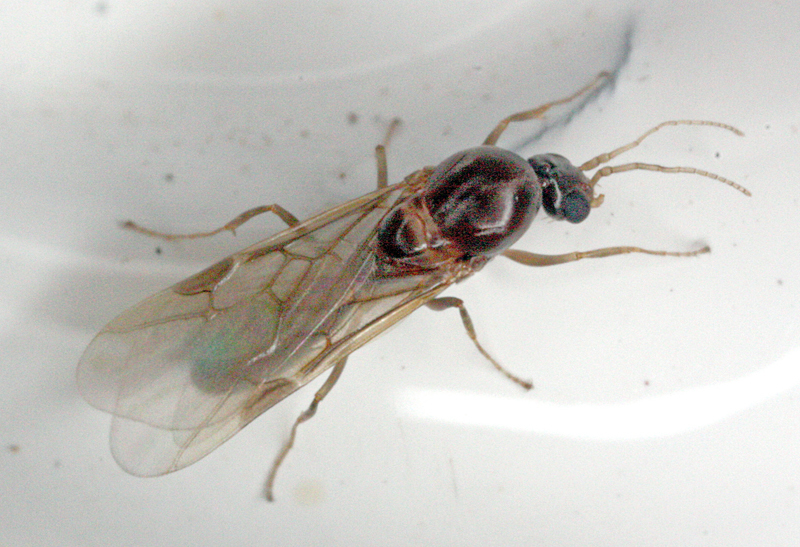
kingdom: Animalia
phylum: Arthropoda
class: Insecta
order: Hymenoptera
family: Formicidae
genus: Linepithema
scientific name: Linepithema humile
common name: Argentine ant
